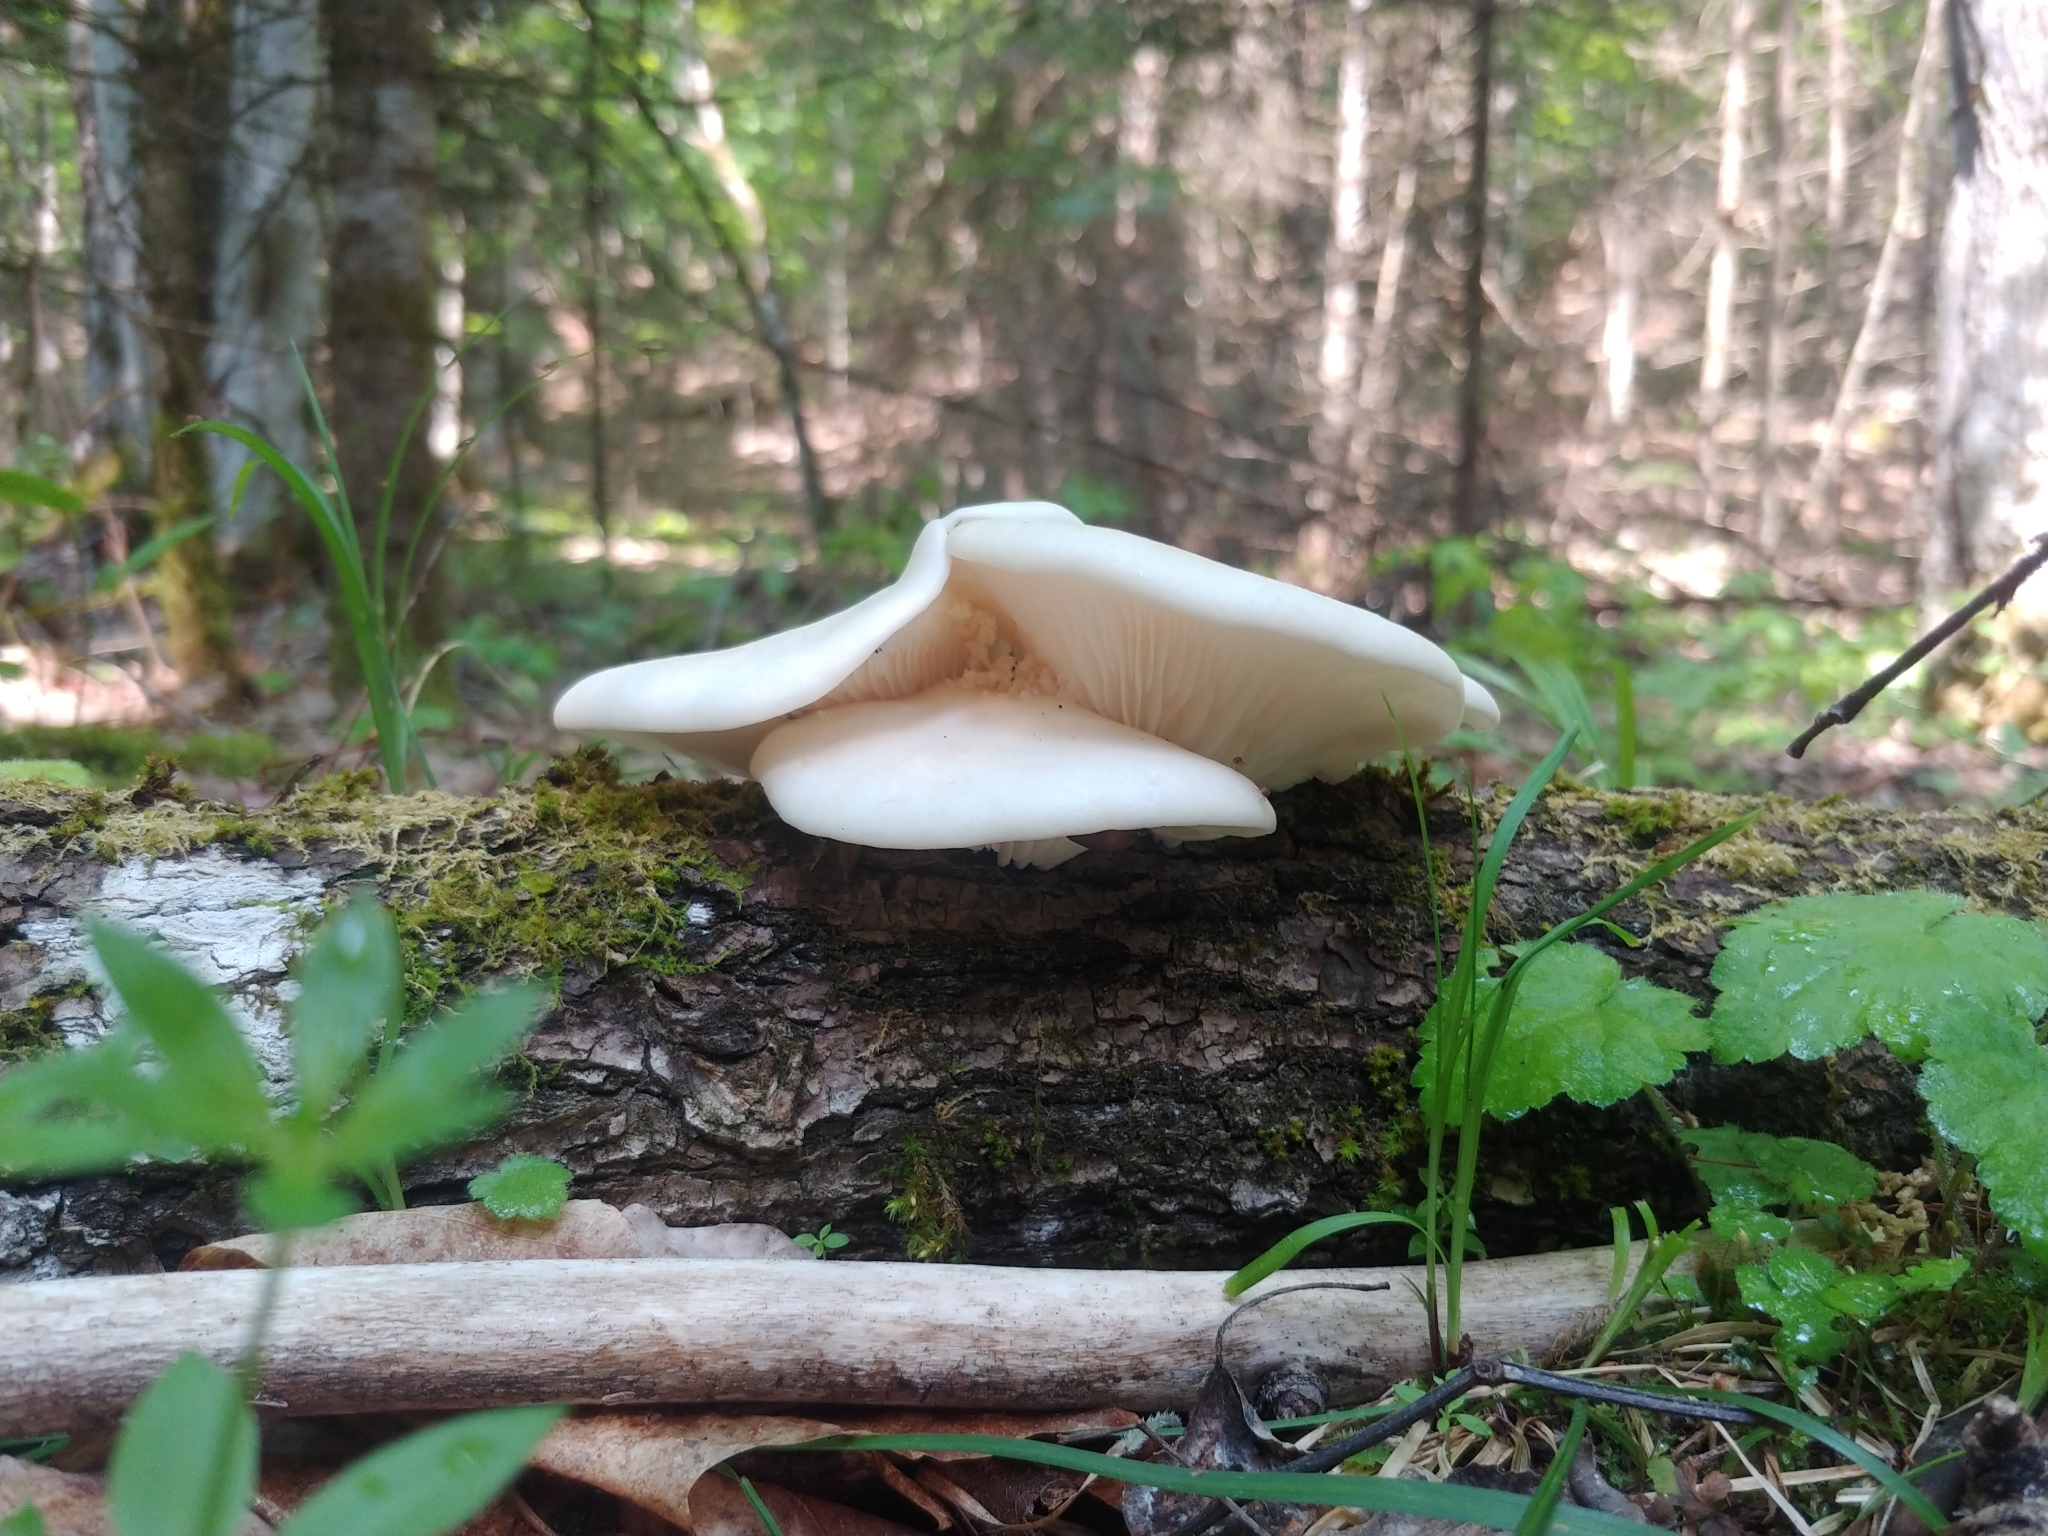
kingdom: Fungi
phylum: Basidiomycota
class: Agaricomycetes
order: Agaricales
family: Pleurotaceae
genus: Pleurotus
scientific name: Pleurotus ostreatus
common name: Oyster mushroom
